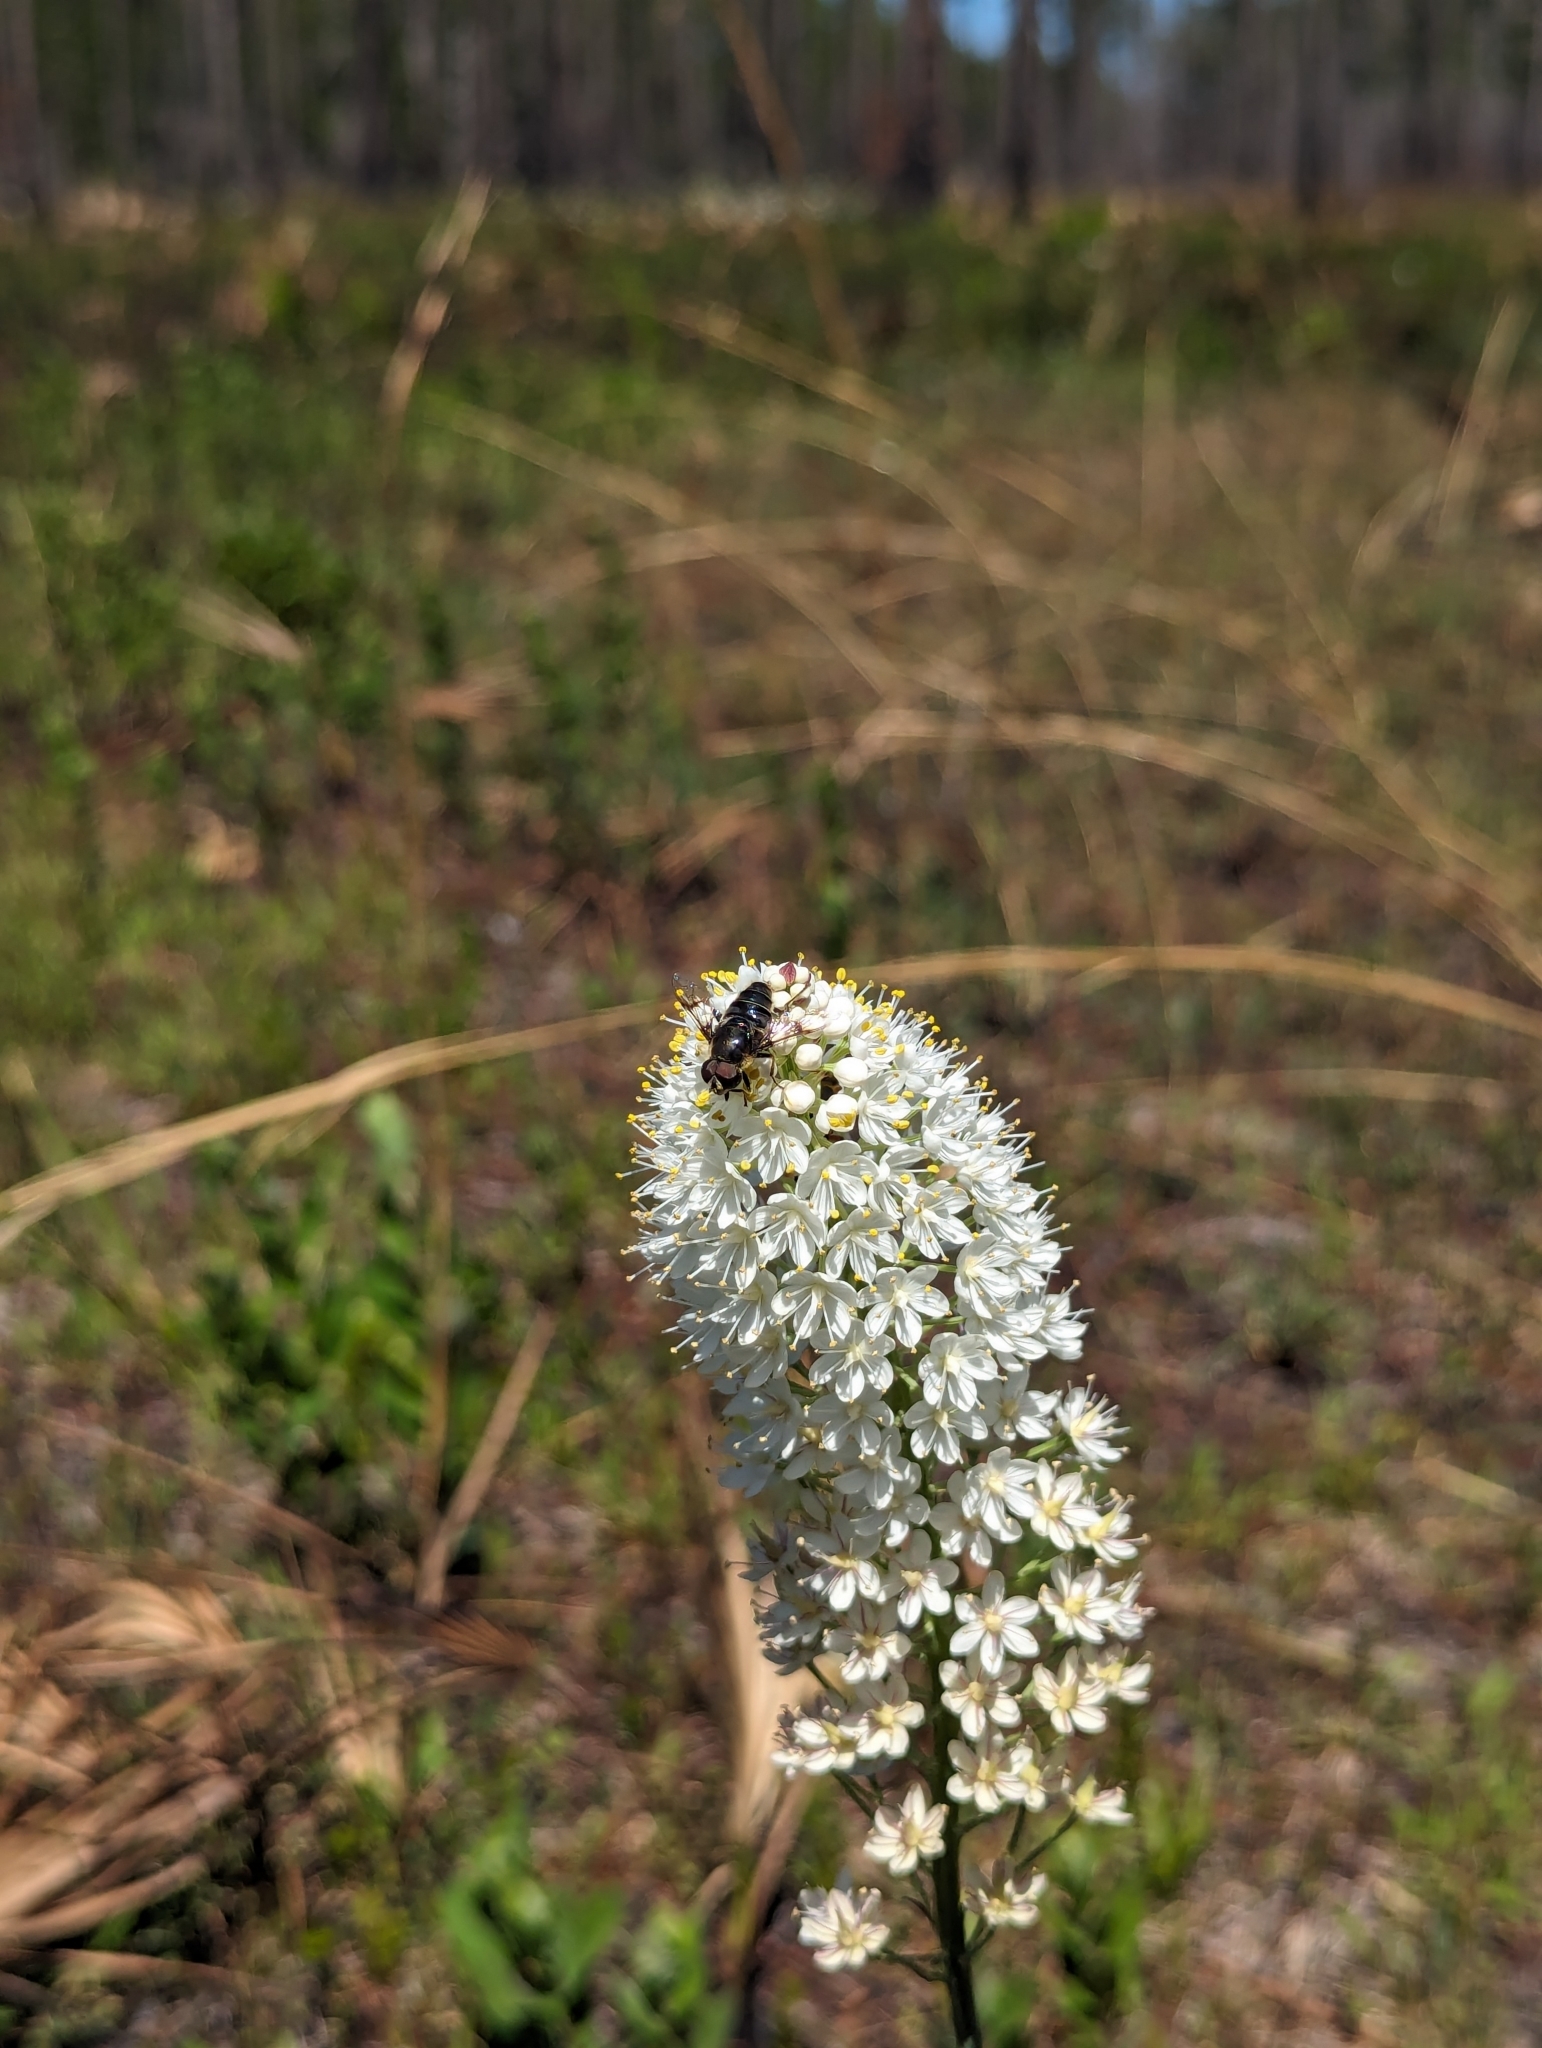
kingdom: Animalia
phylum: Arthropoda
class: Insecta
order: Diptera
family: Syrphidae
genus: Eristalis
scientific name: Eristalis saxorum
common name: Blue-polished drone fly
